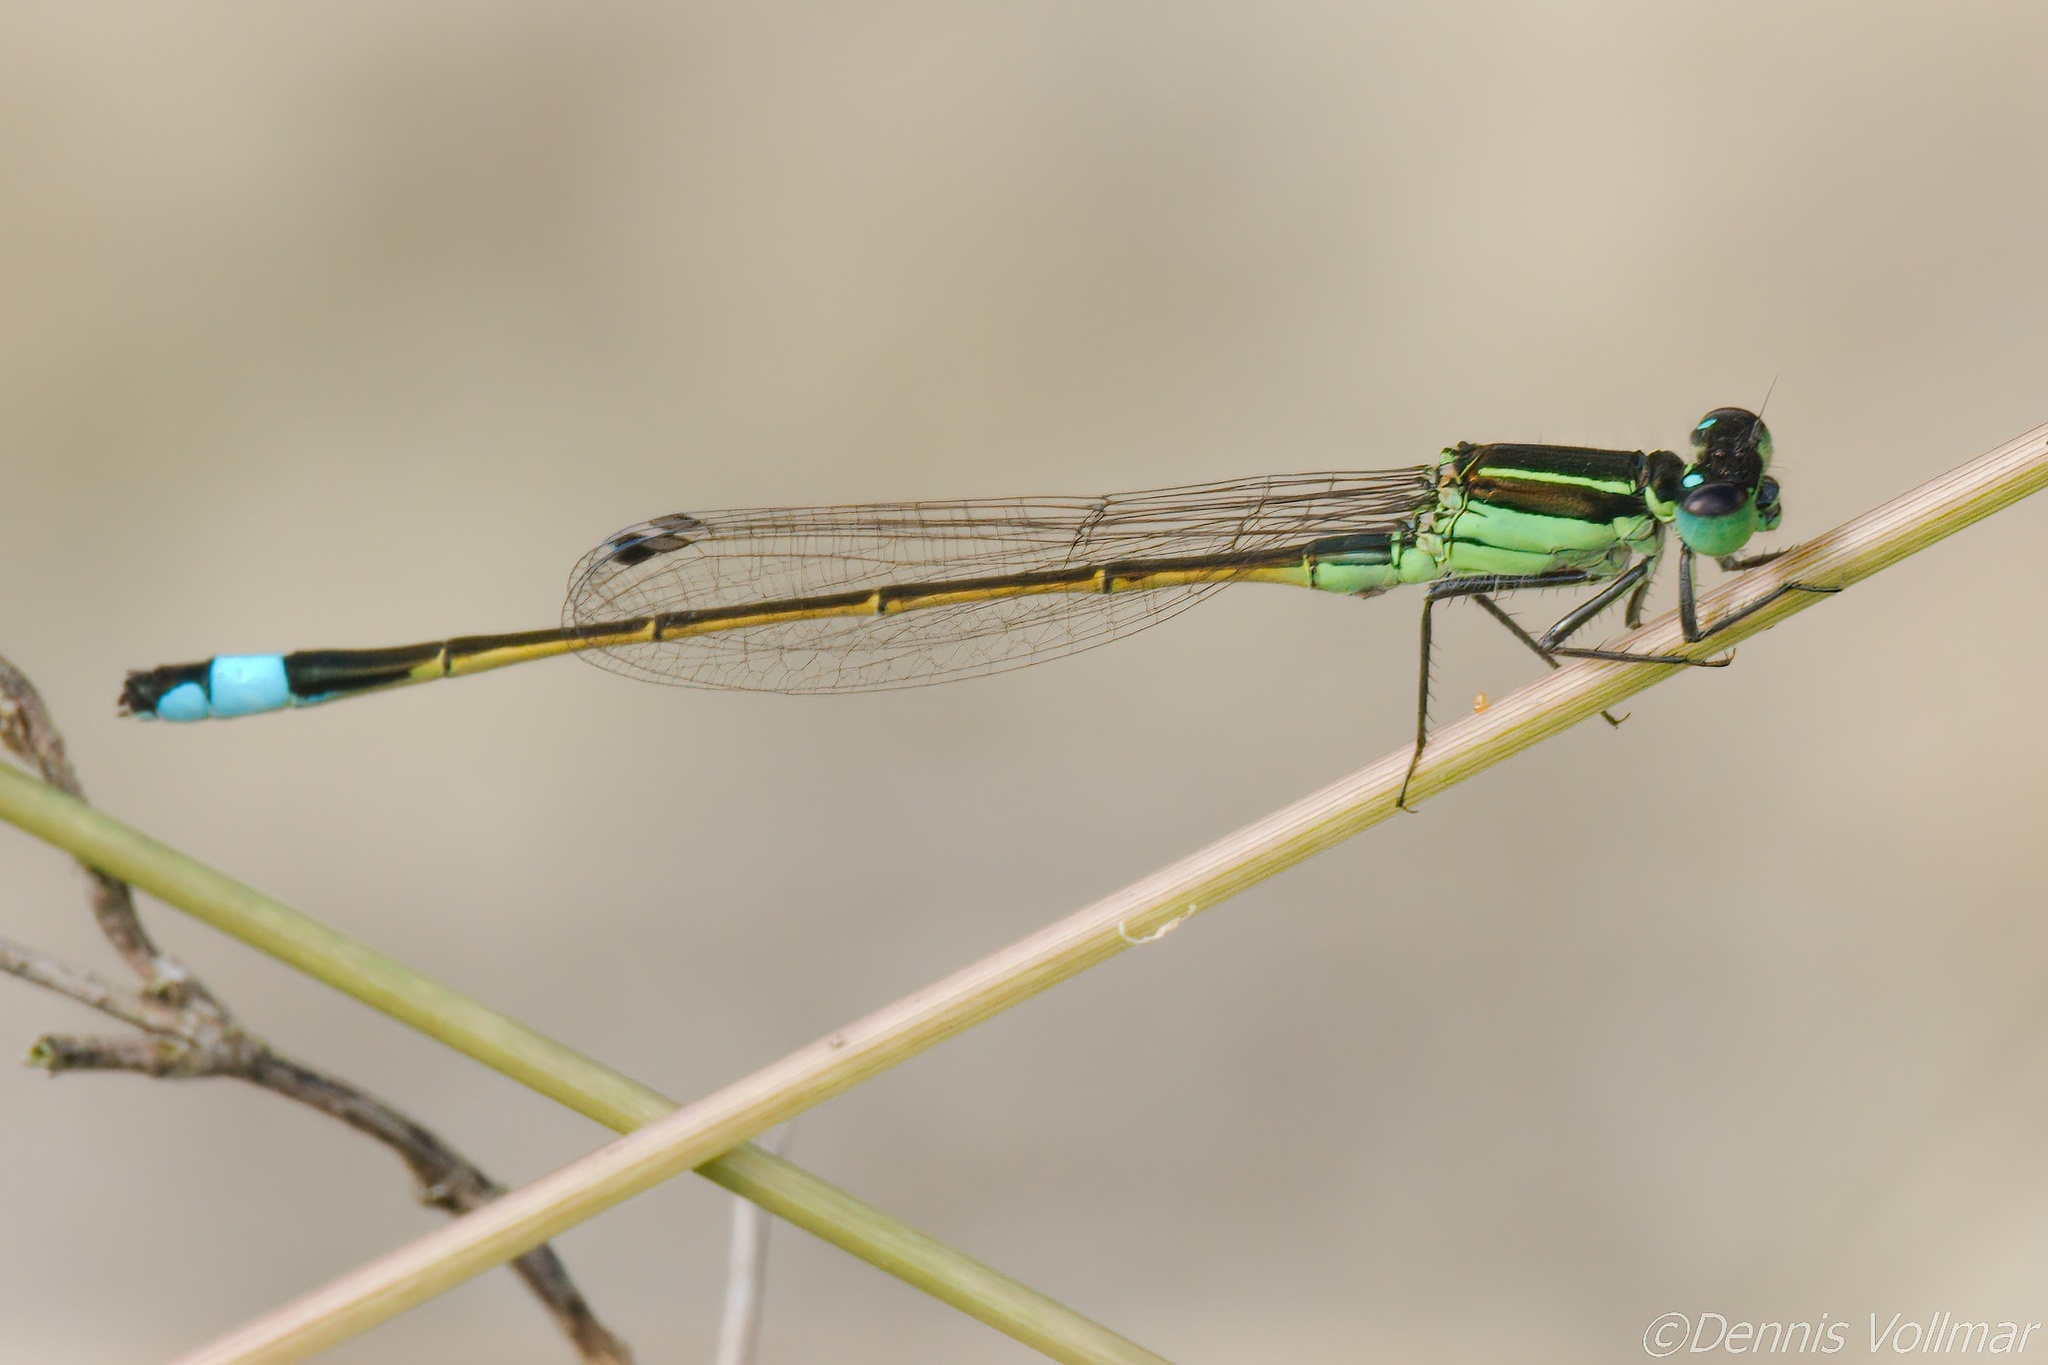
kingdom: Animalia
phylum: Arthropoda
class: Insecta
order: Odonata
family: Coenagrionidae
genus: Ischnura
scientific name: Ischnura ramburii
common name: Rambur's forktail
